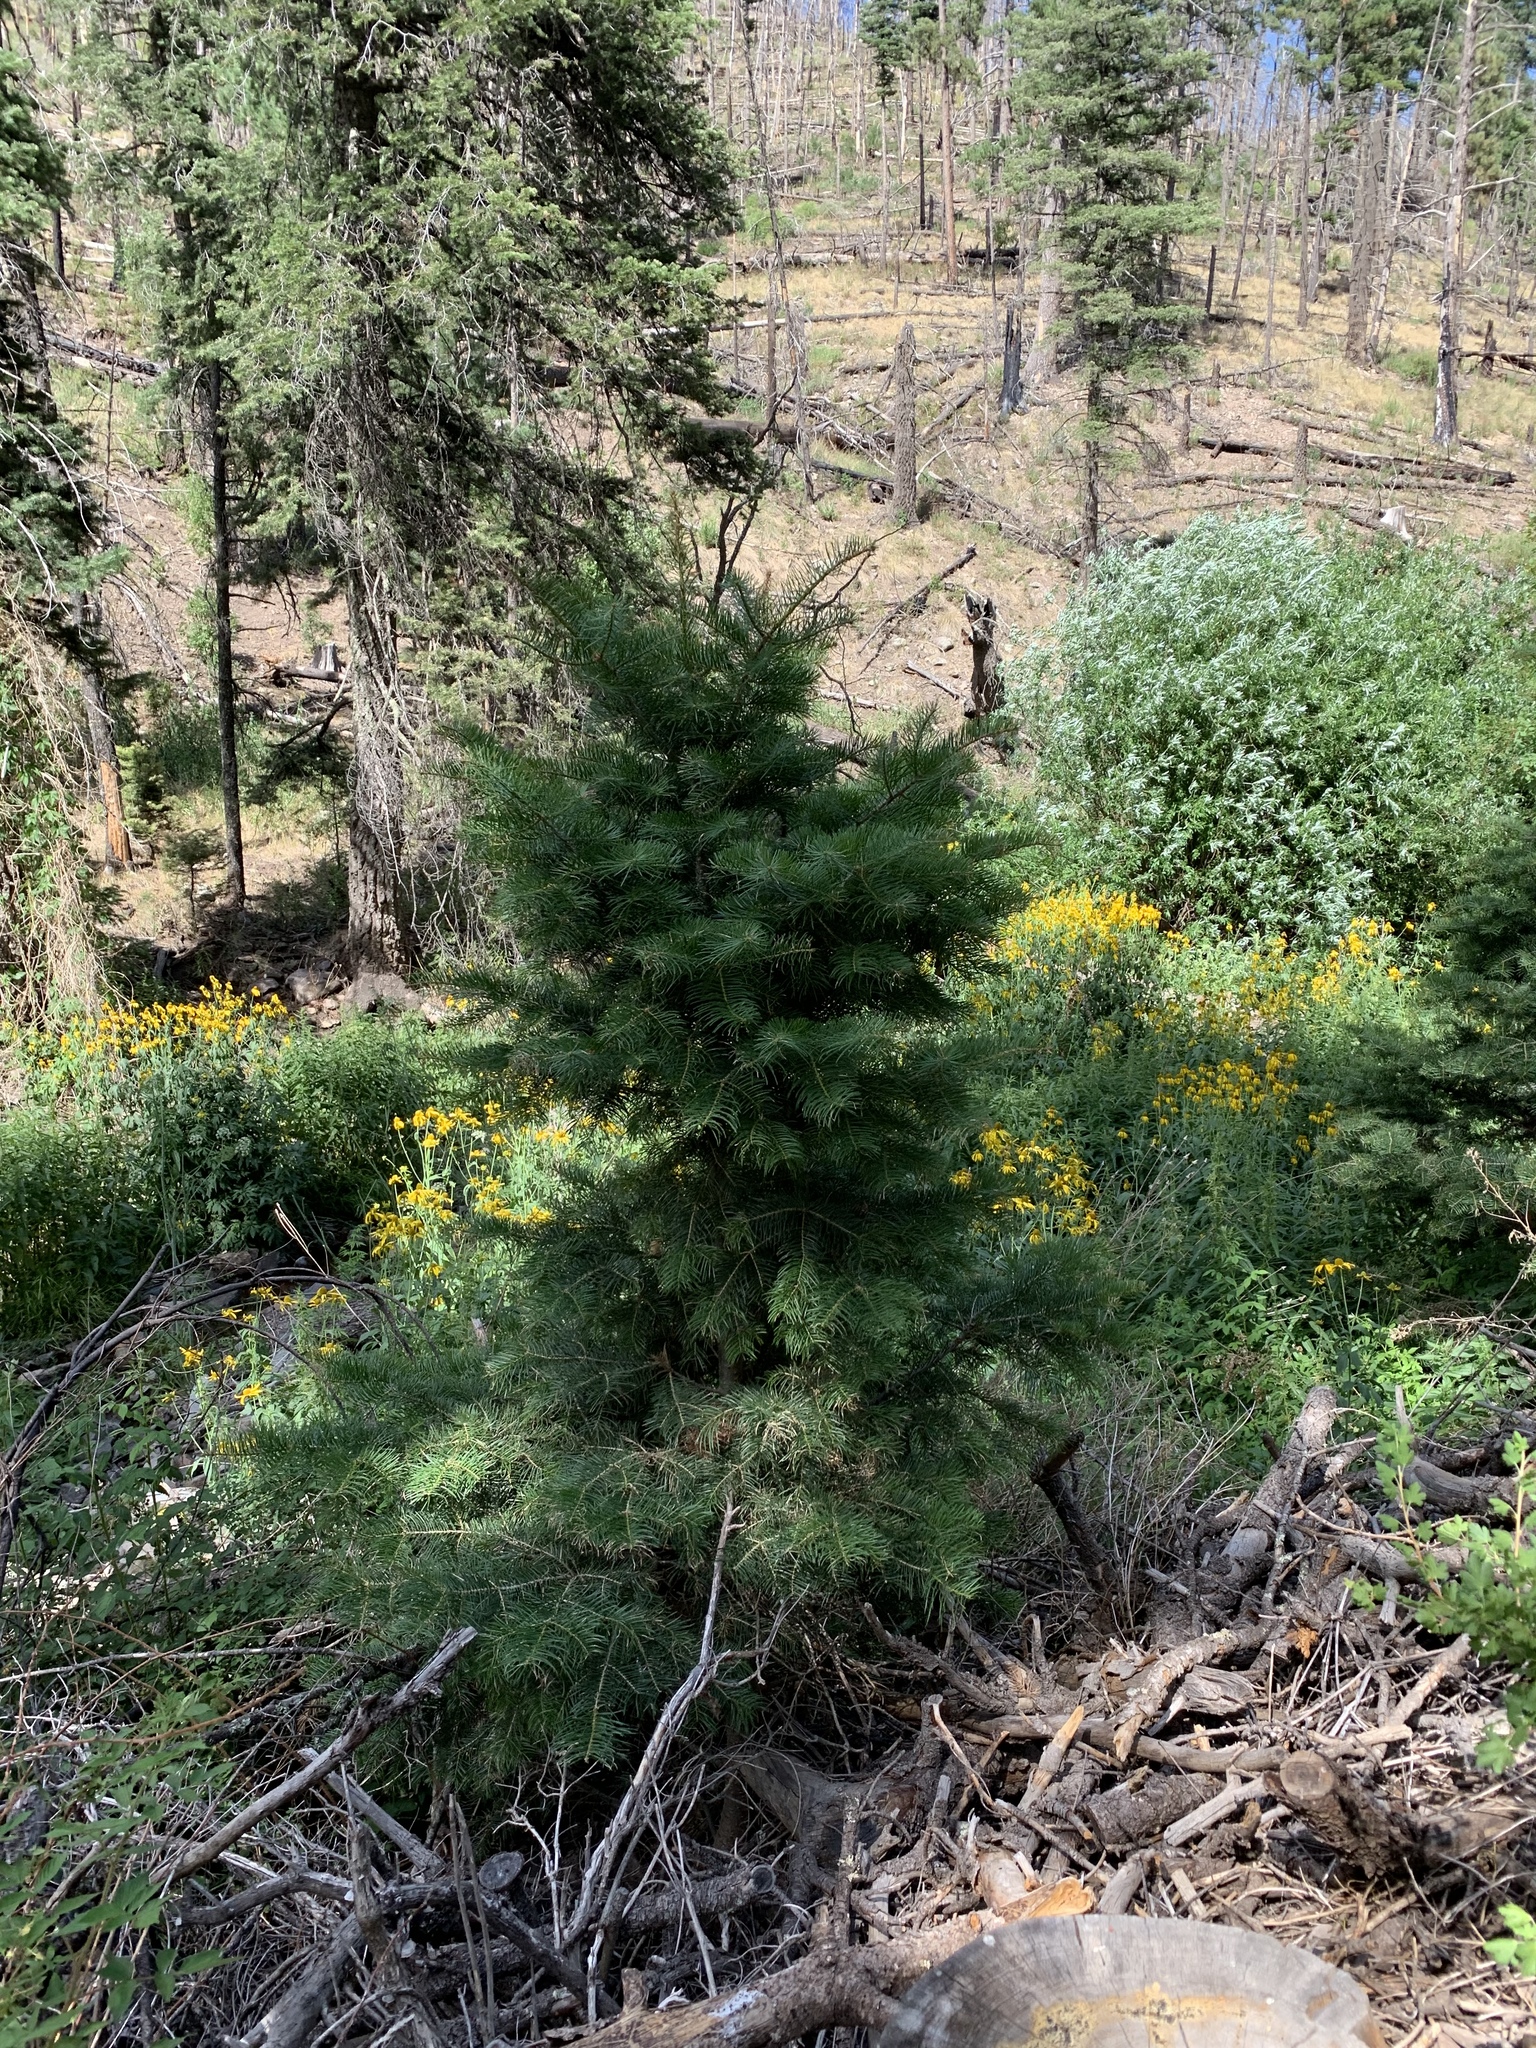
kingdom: Plantae
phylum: Tracheophyta
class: Pinopsida
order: Pinales
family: Pinaceae
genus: Abies
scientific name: Abies concolor
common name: Colorado fir
